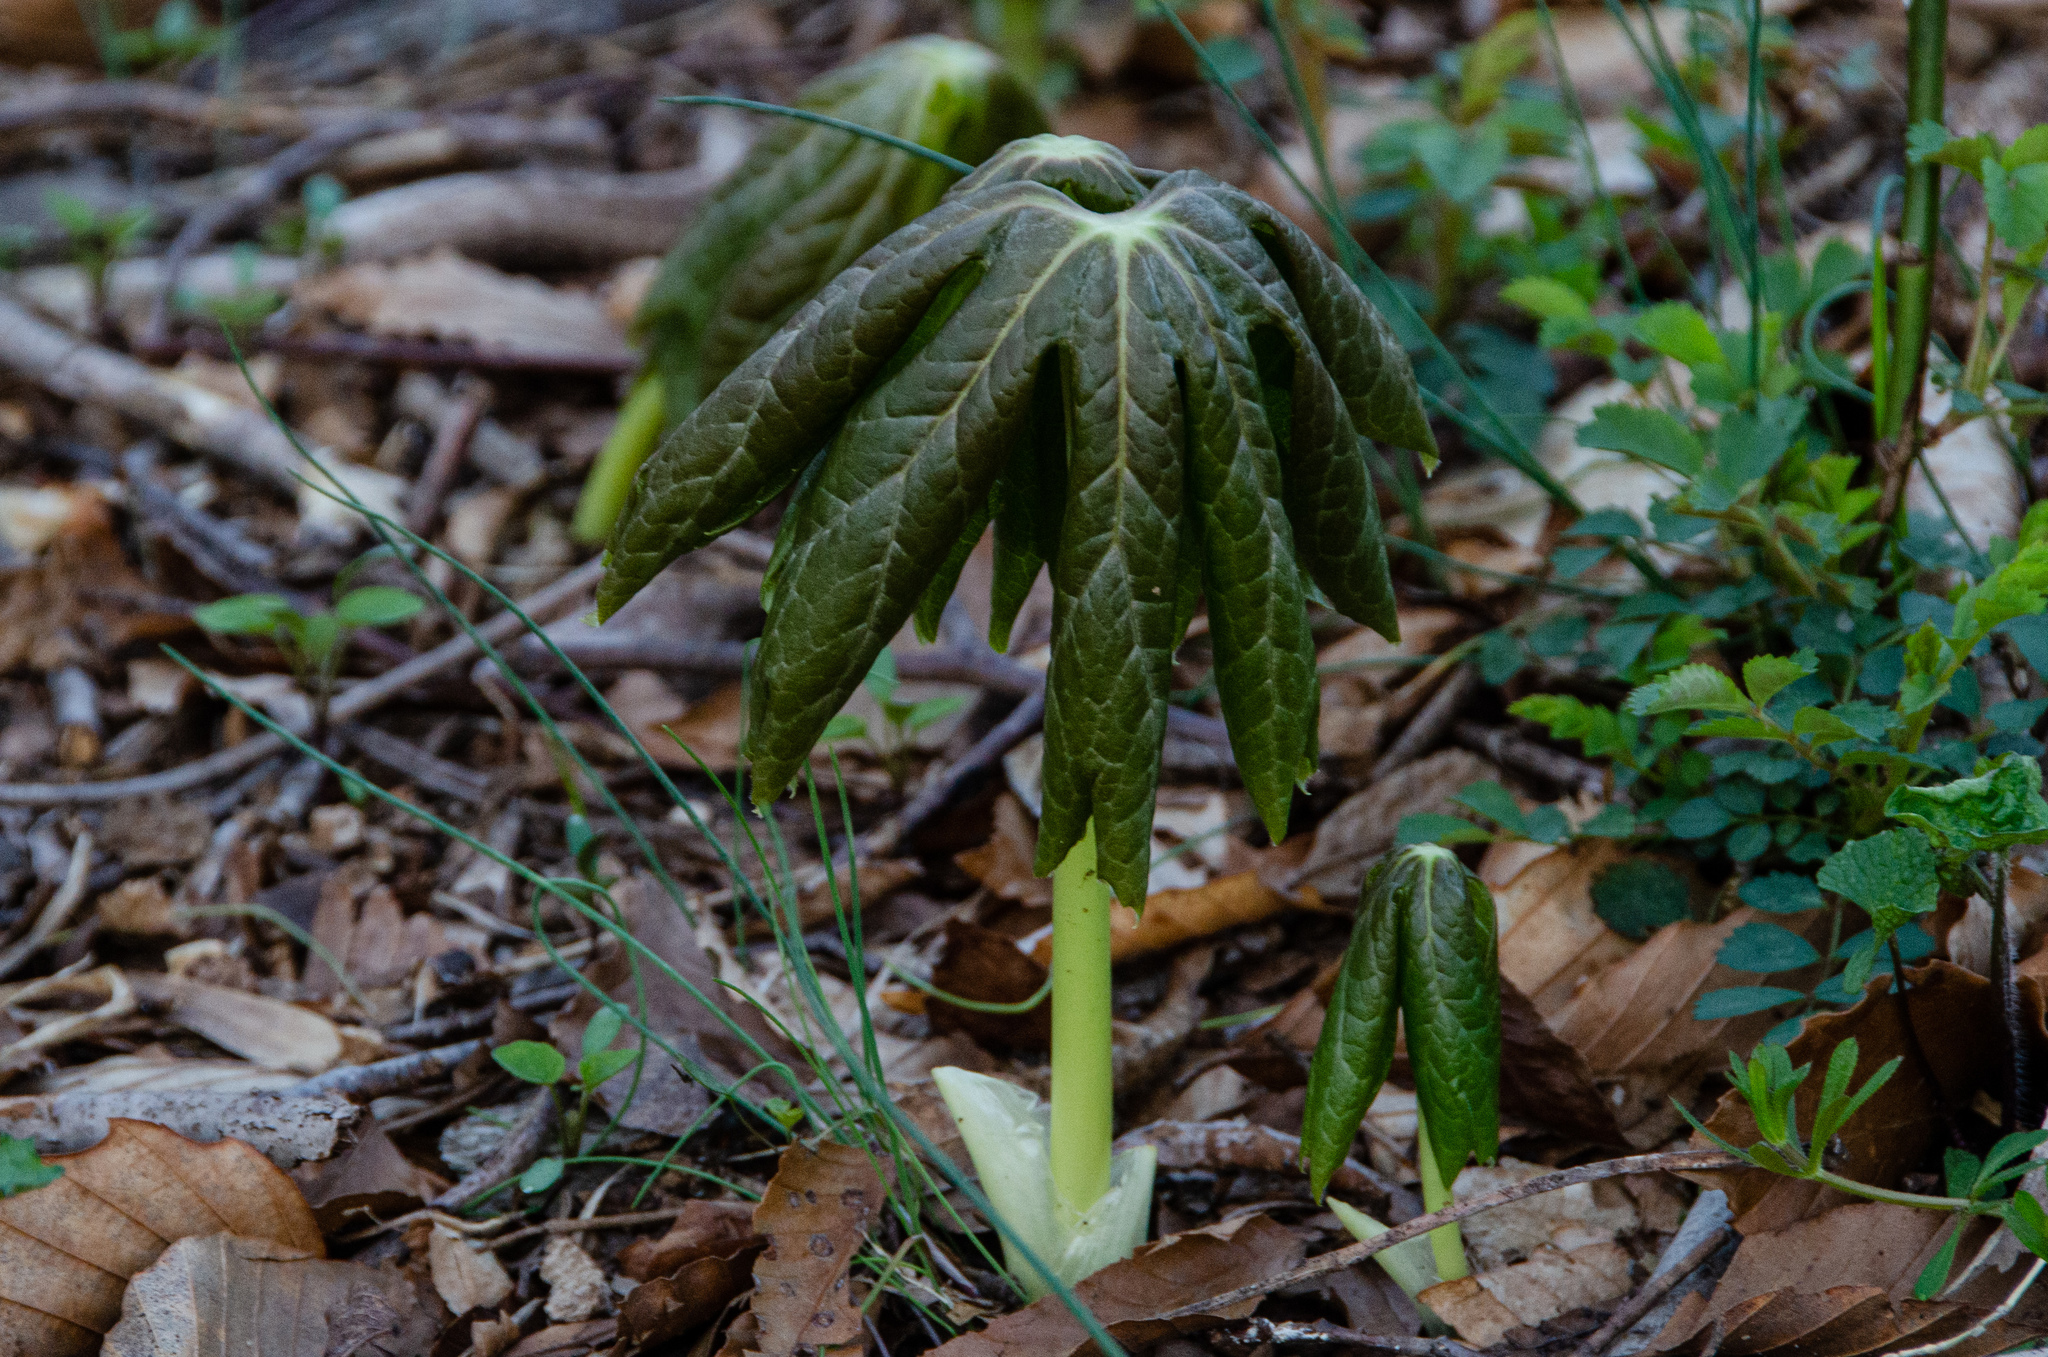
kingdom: Plantae
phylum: Tracheophyta
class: Magnoliopsida
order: Ranunculales
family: Berberidaceae
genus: Podophyllum
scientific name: Podophyllum peltatum
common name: Wild mandrake
